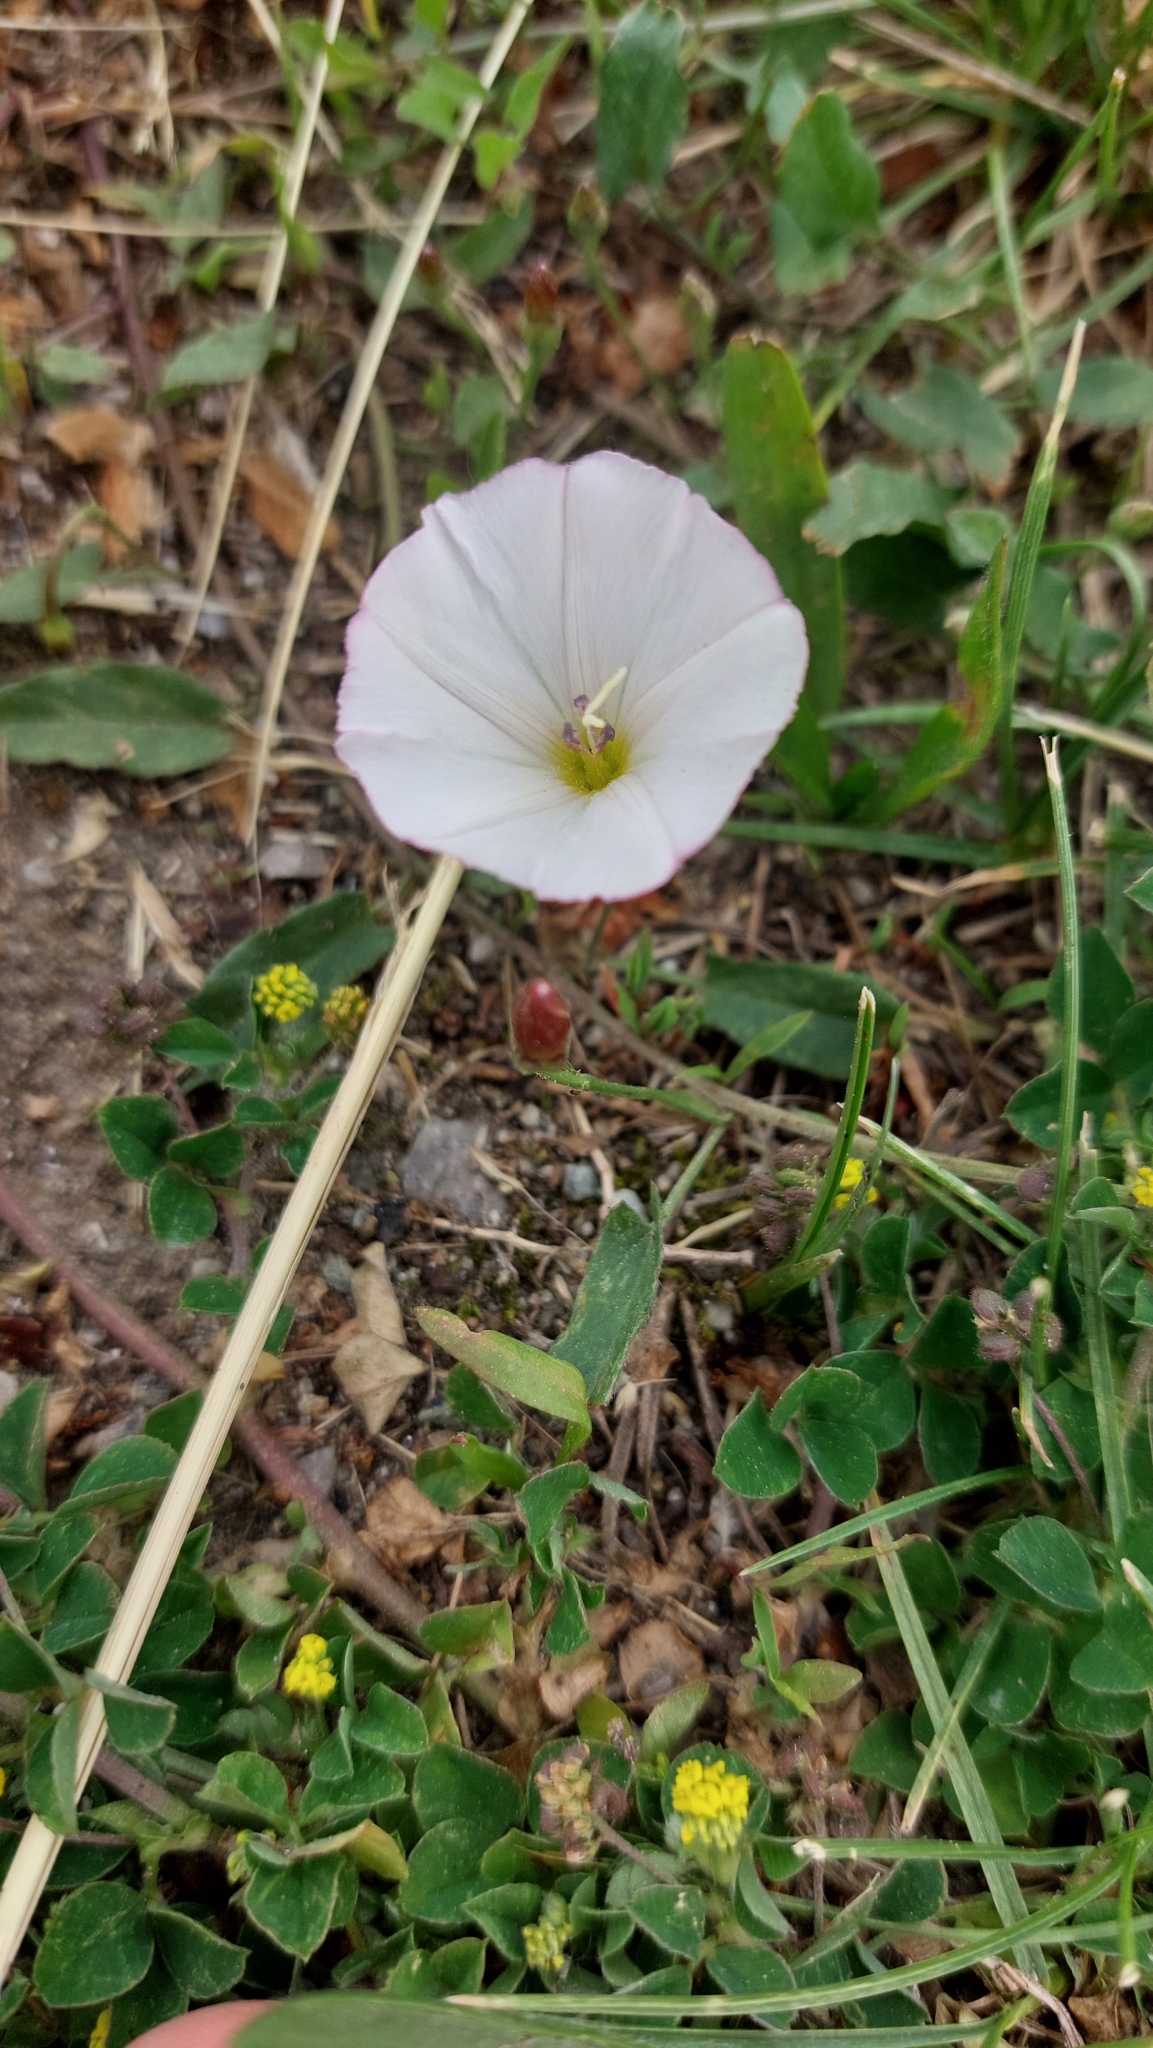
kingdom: Plantae
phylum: Tracheophyta
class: Magnoliopsida
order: Solanales
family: Convolvulaceae
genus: Convolvulus
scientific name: Convolvulus arvensis
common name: Field bindweed
